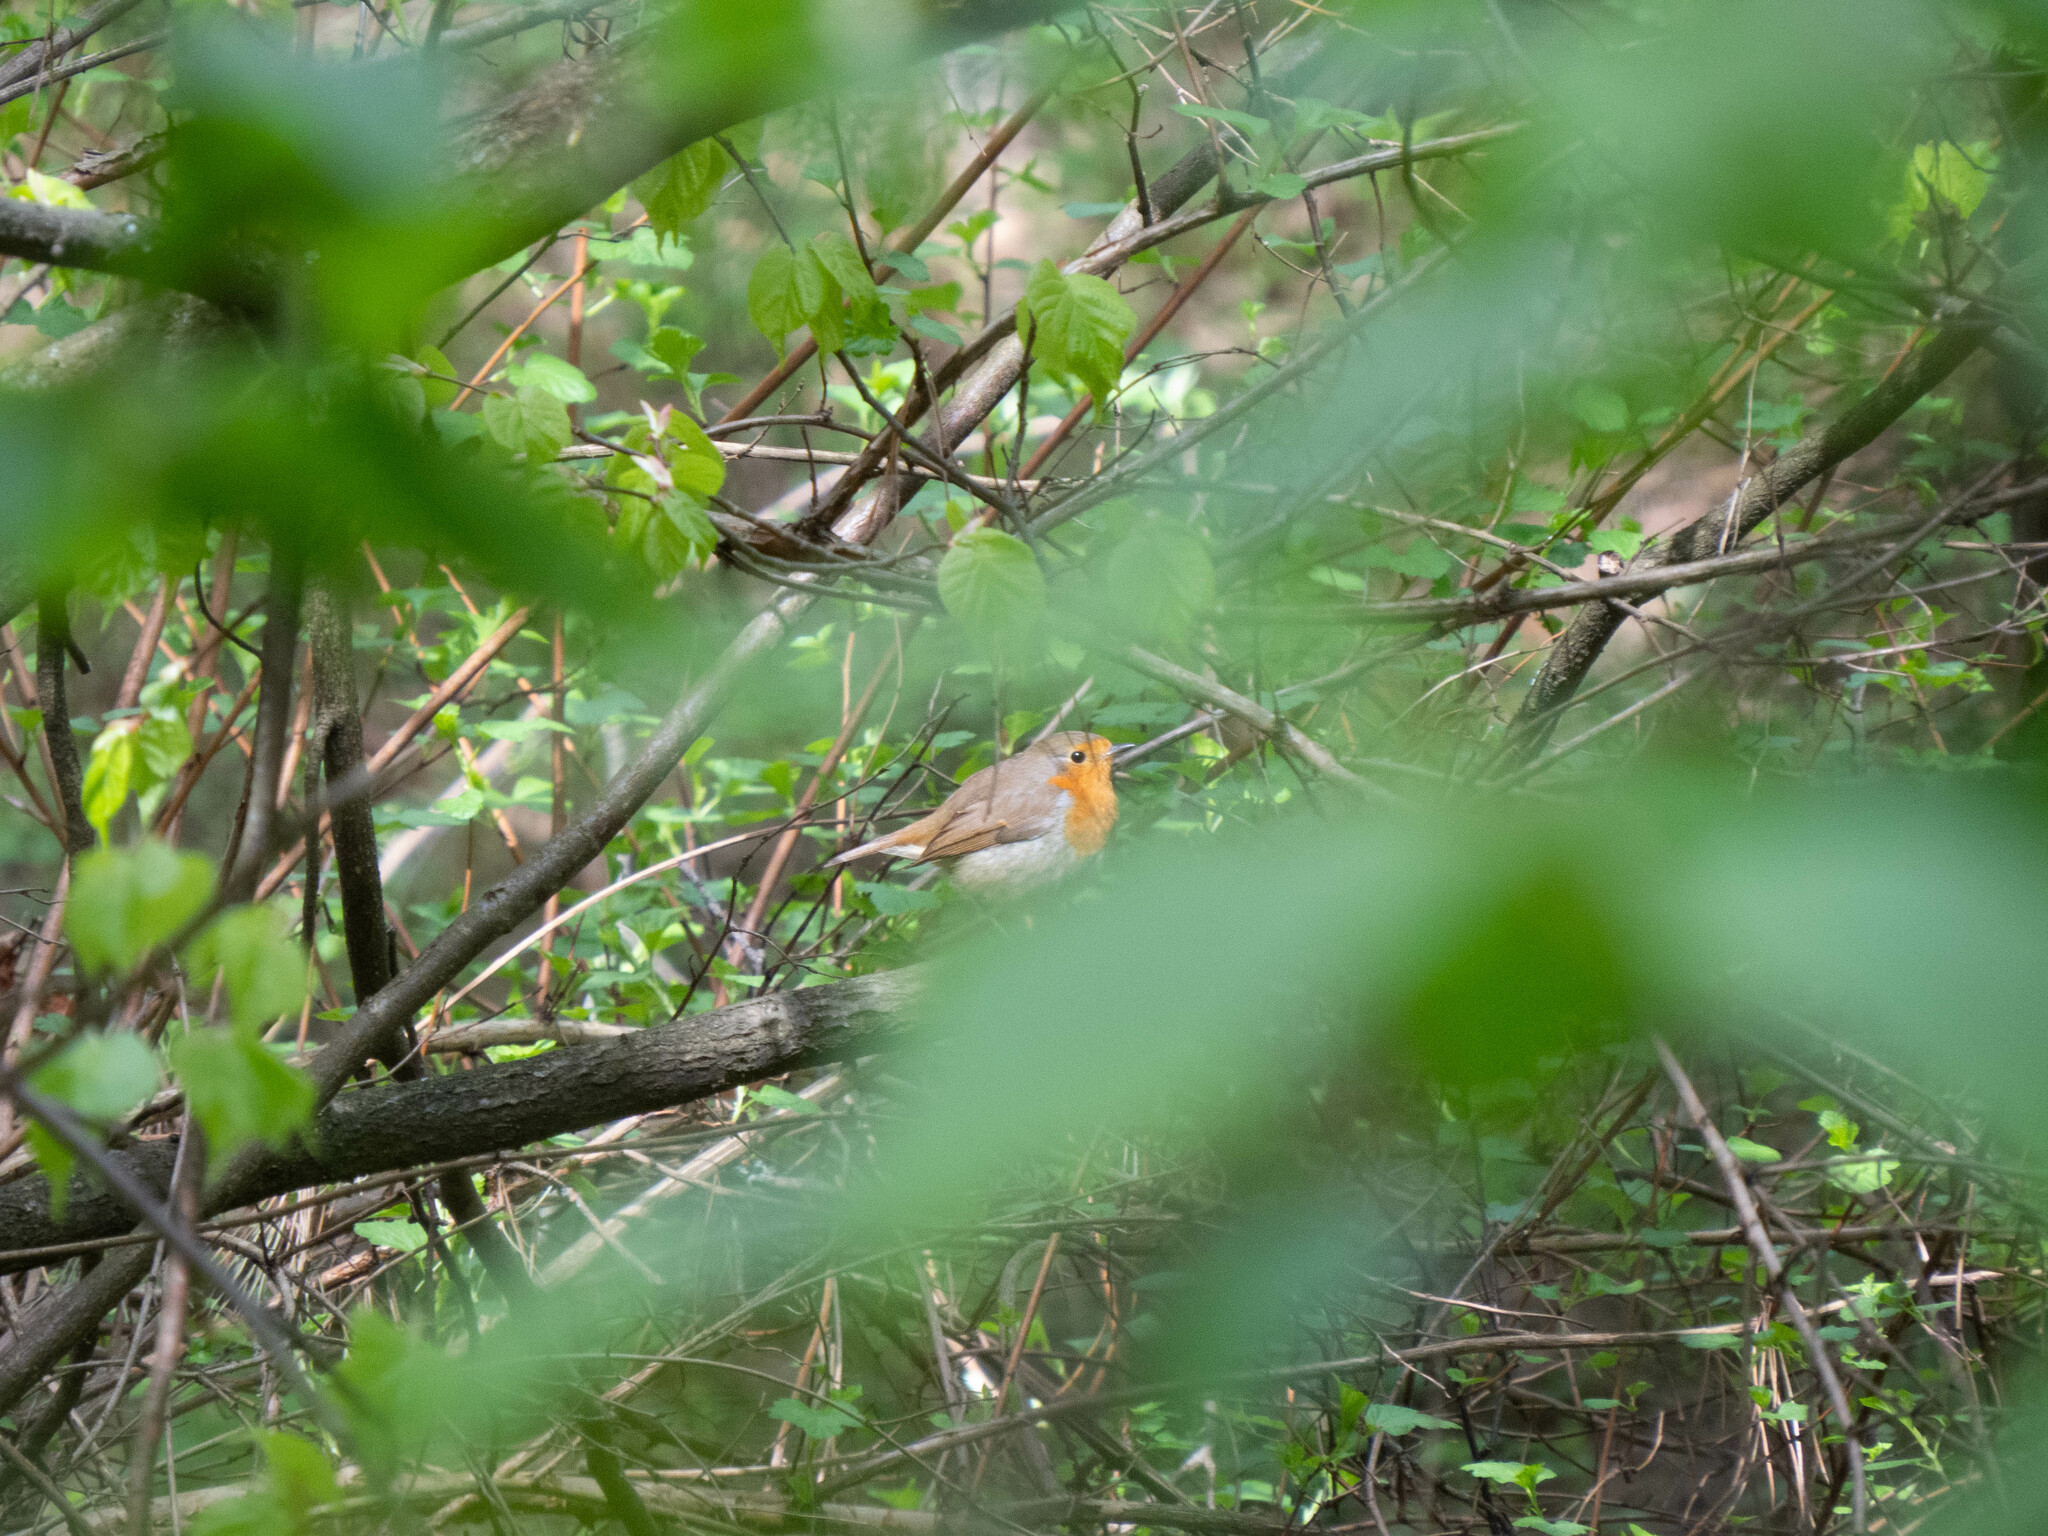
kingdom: Animalia
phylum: Chordata
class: Aves
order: Passeriformes
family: Muscicapidae
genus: Erithacus
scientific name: Erithacus rubecula
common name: European robin
